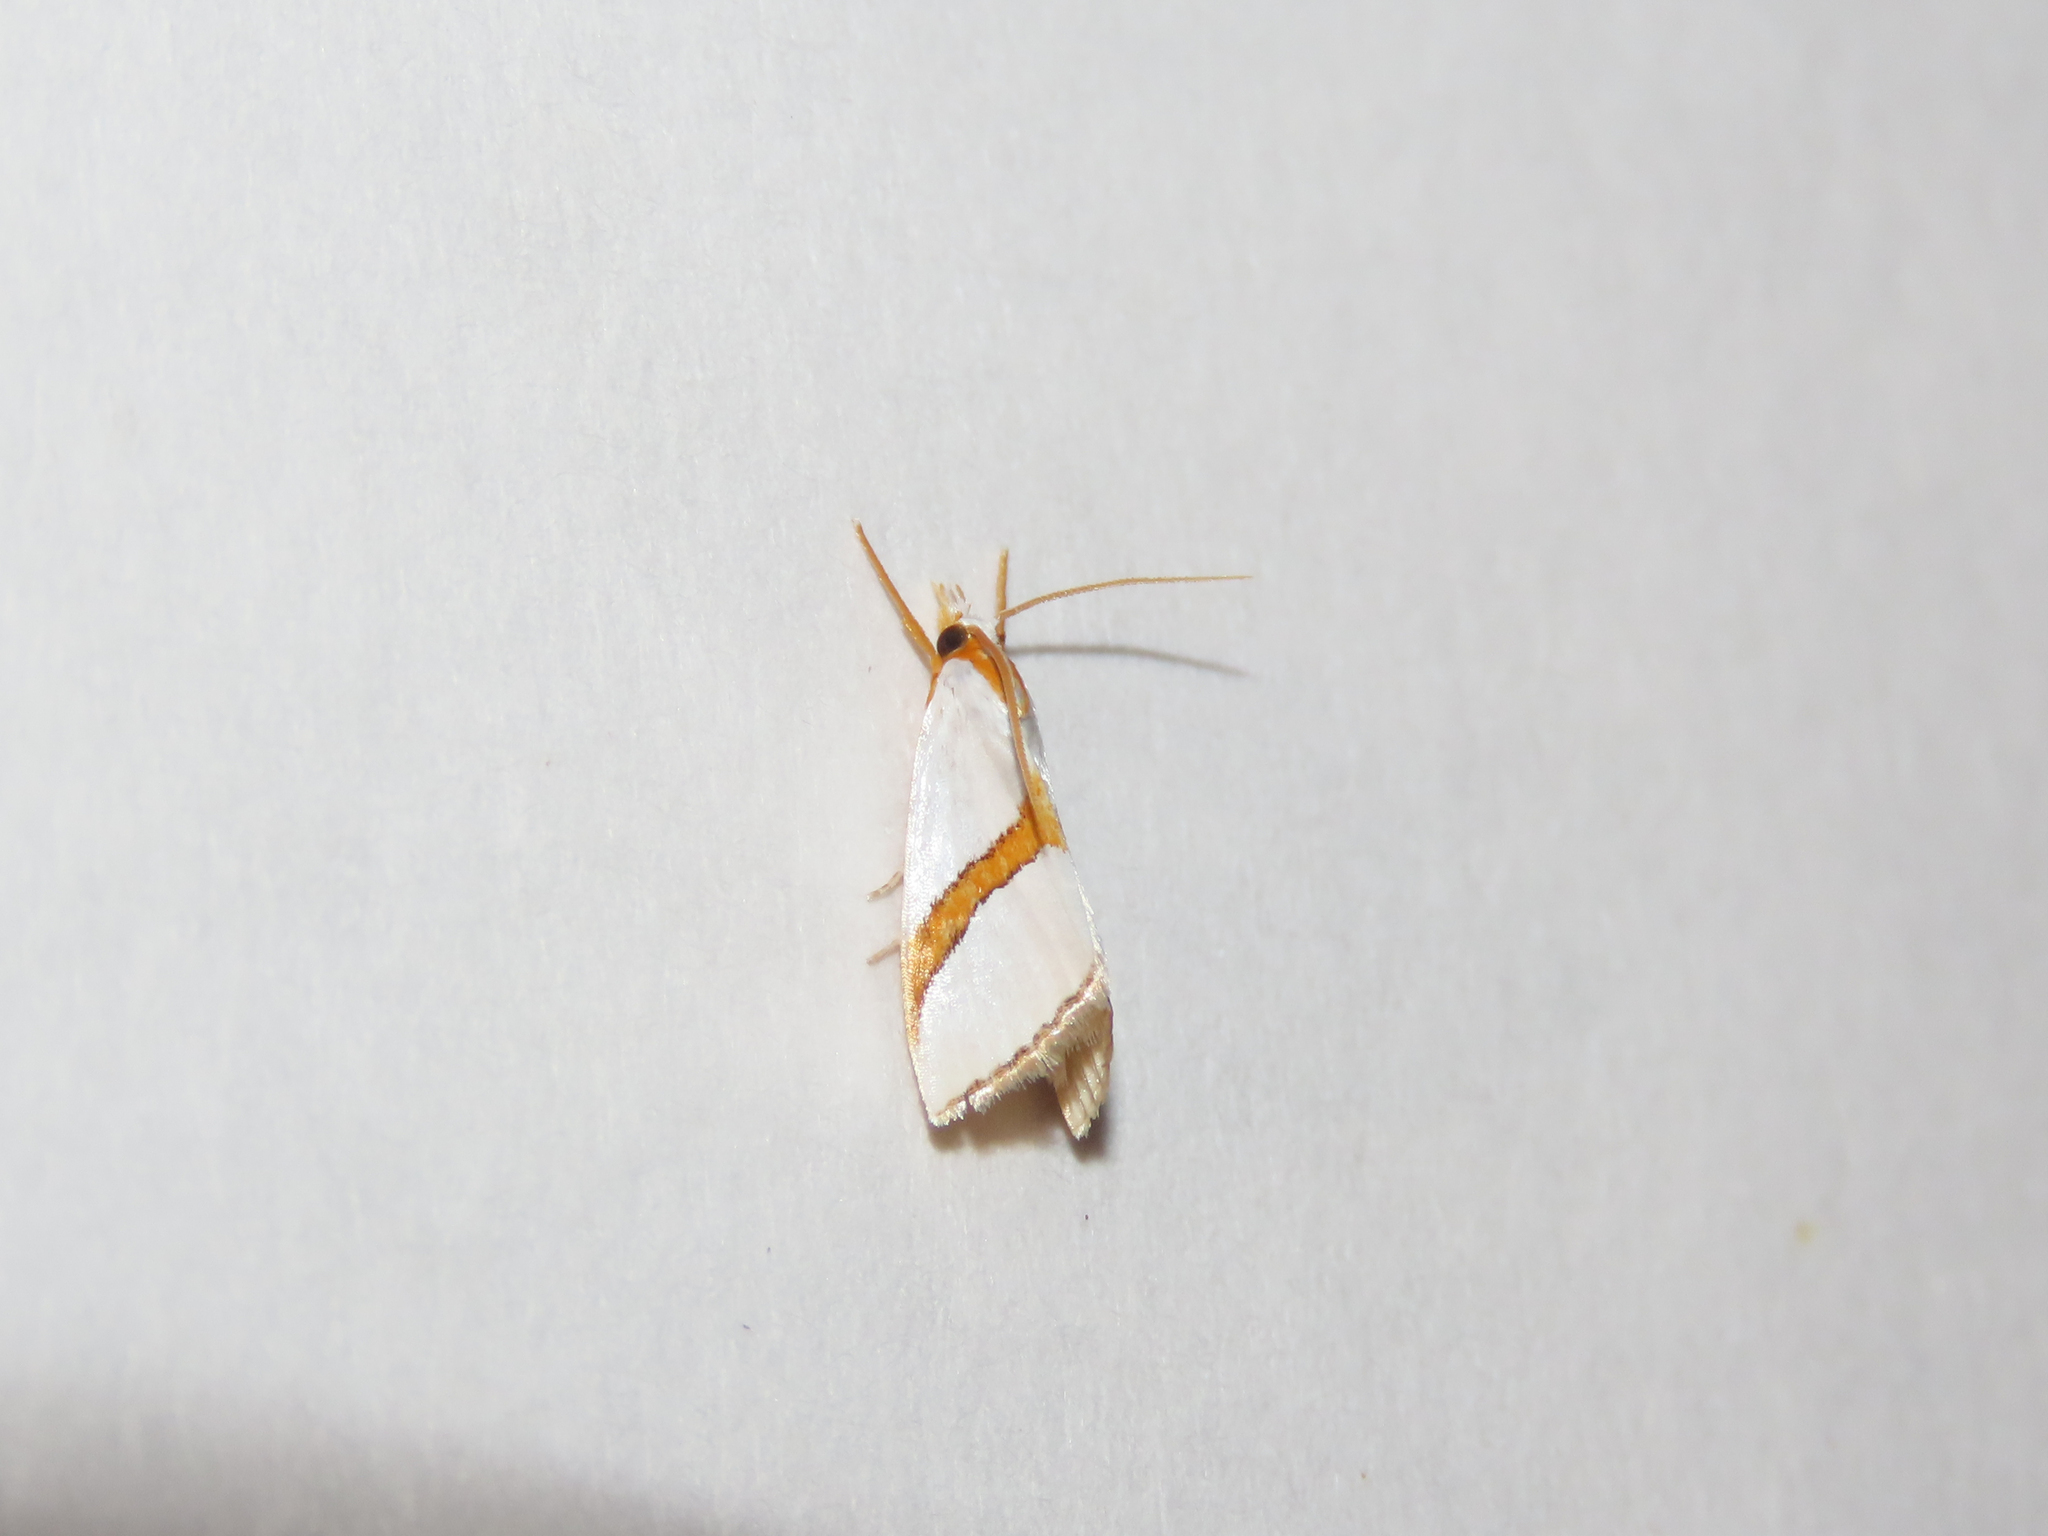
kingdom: Animalia
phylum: Arthropoda
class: Insecta
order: Lepidoptera
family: Crambidae
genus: Vaxi
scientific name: Vaxi critica
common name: Straight-lined vaxi moth
